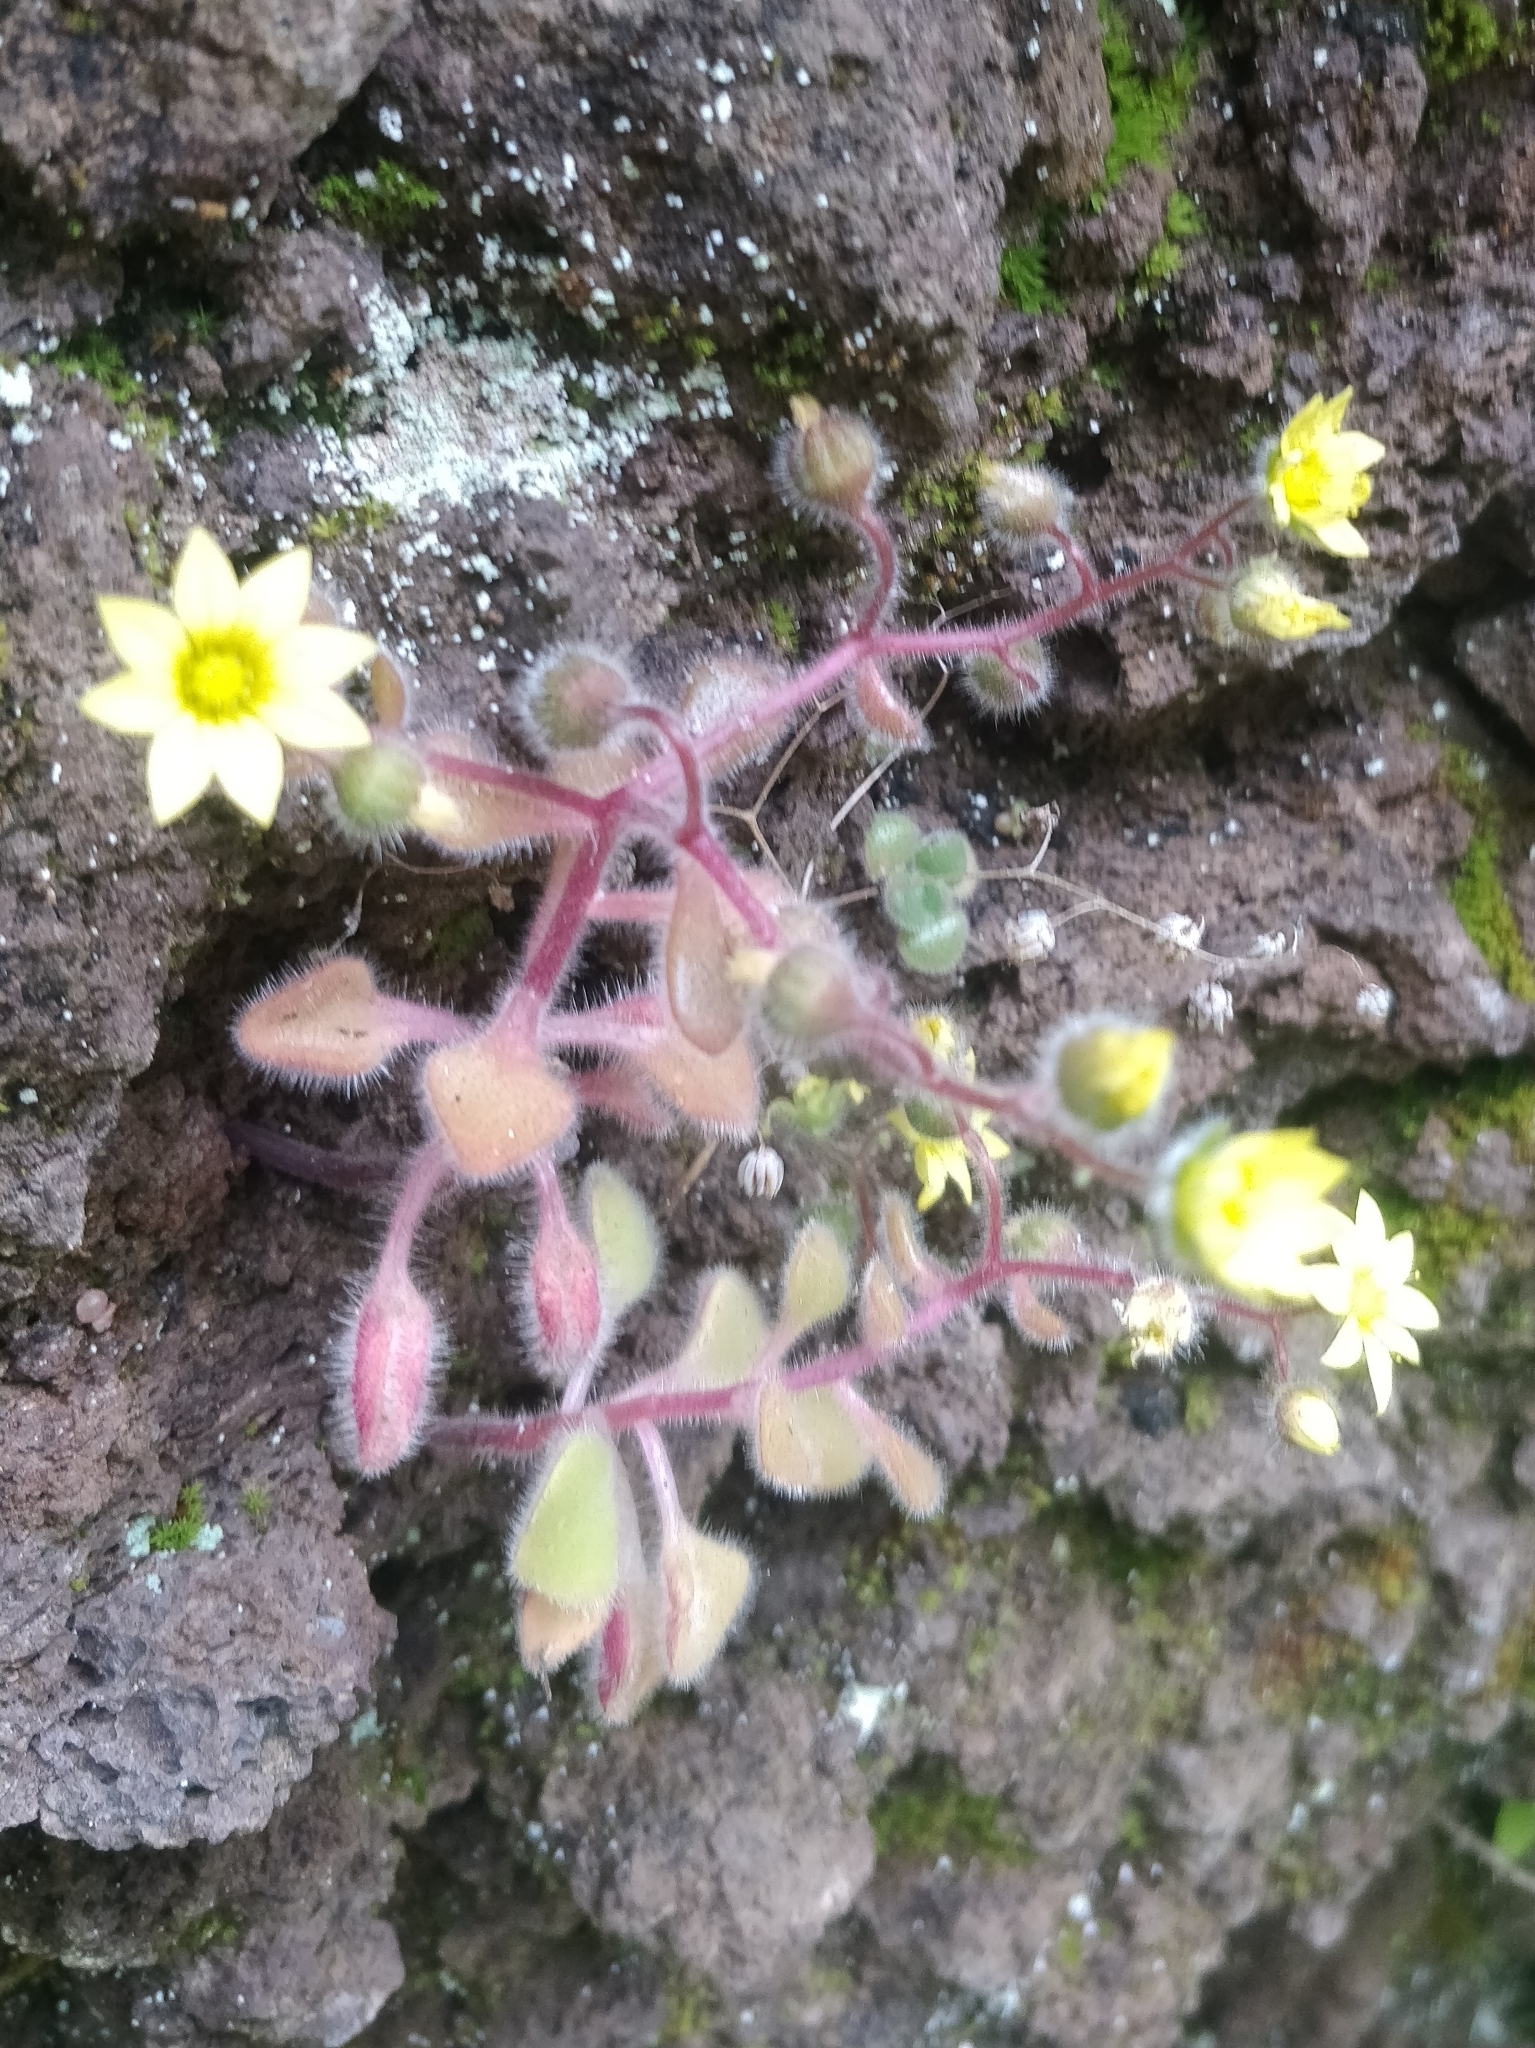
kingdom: Plantae
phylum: Tracheophyta
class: Magnoliopsida
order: Saxifragales
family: Crassulaceae
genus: Aichryson
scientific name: Aichryson villosum
